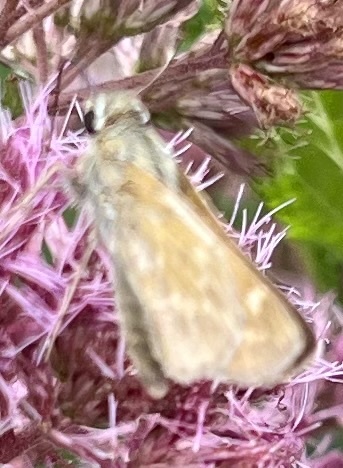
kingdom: Animalia
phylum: Arthropoda
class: Insecta
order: Lepidoptera
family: Hesperiidae
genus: Atalopedes
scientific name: Atalopedes
